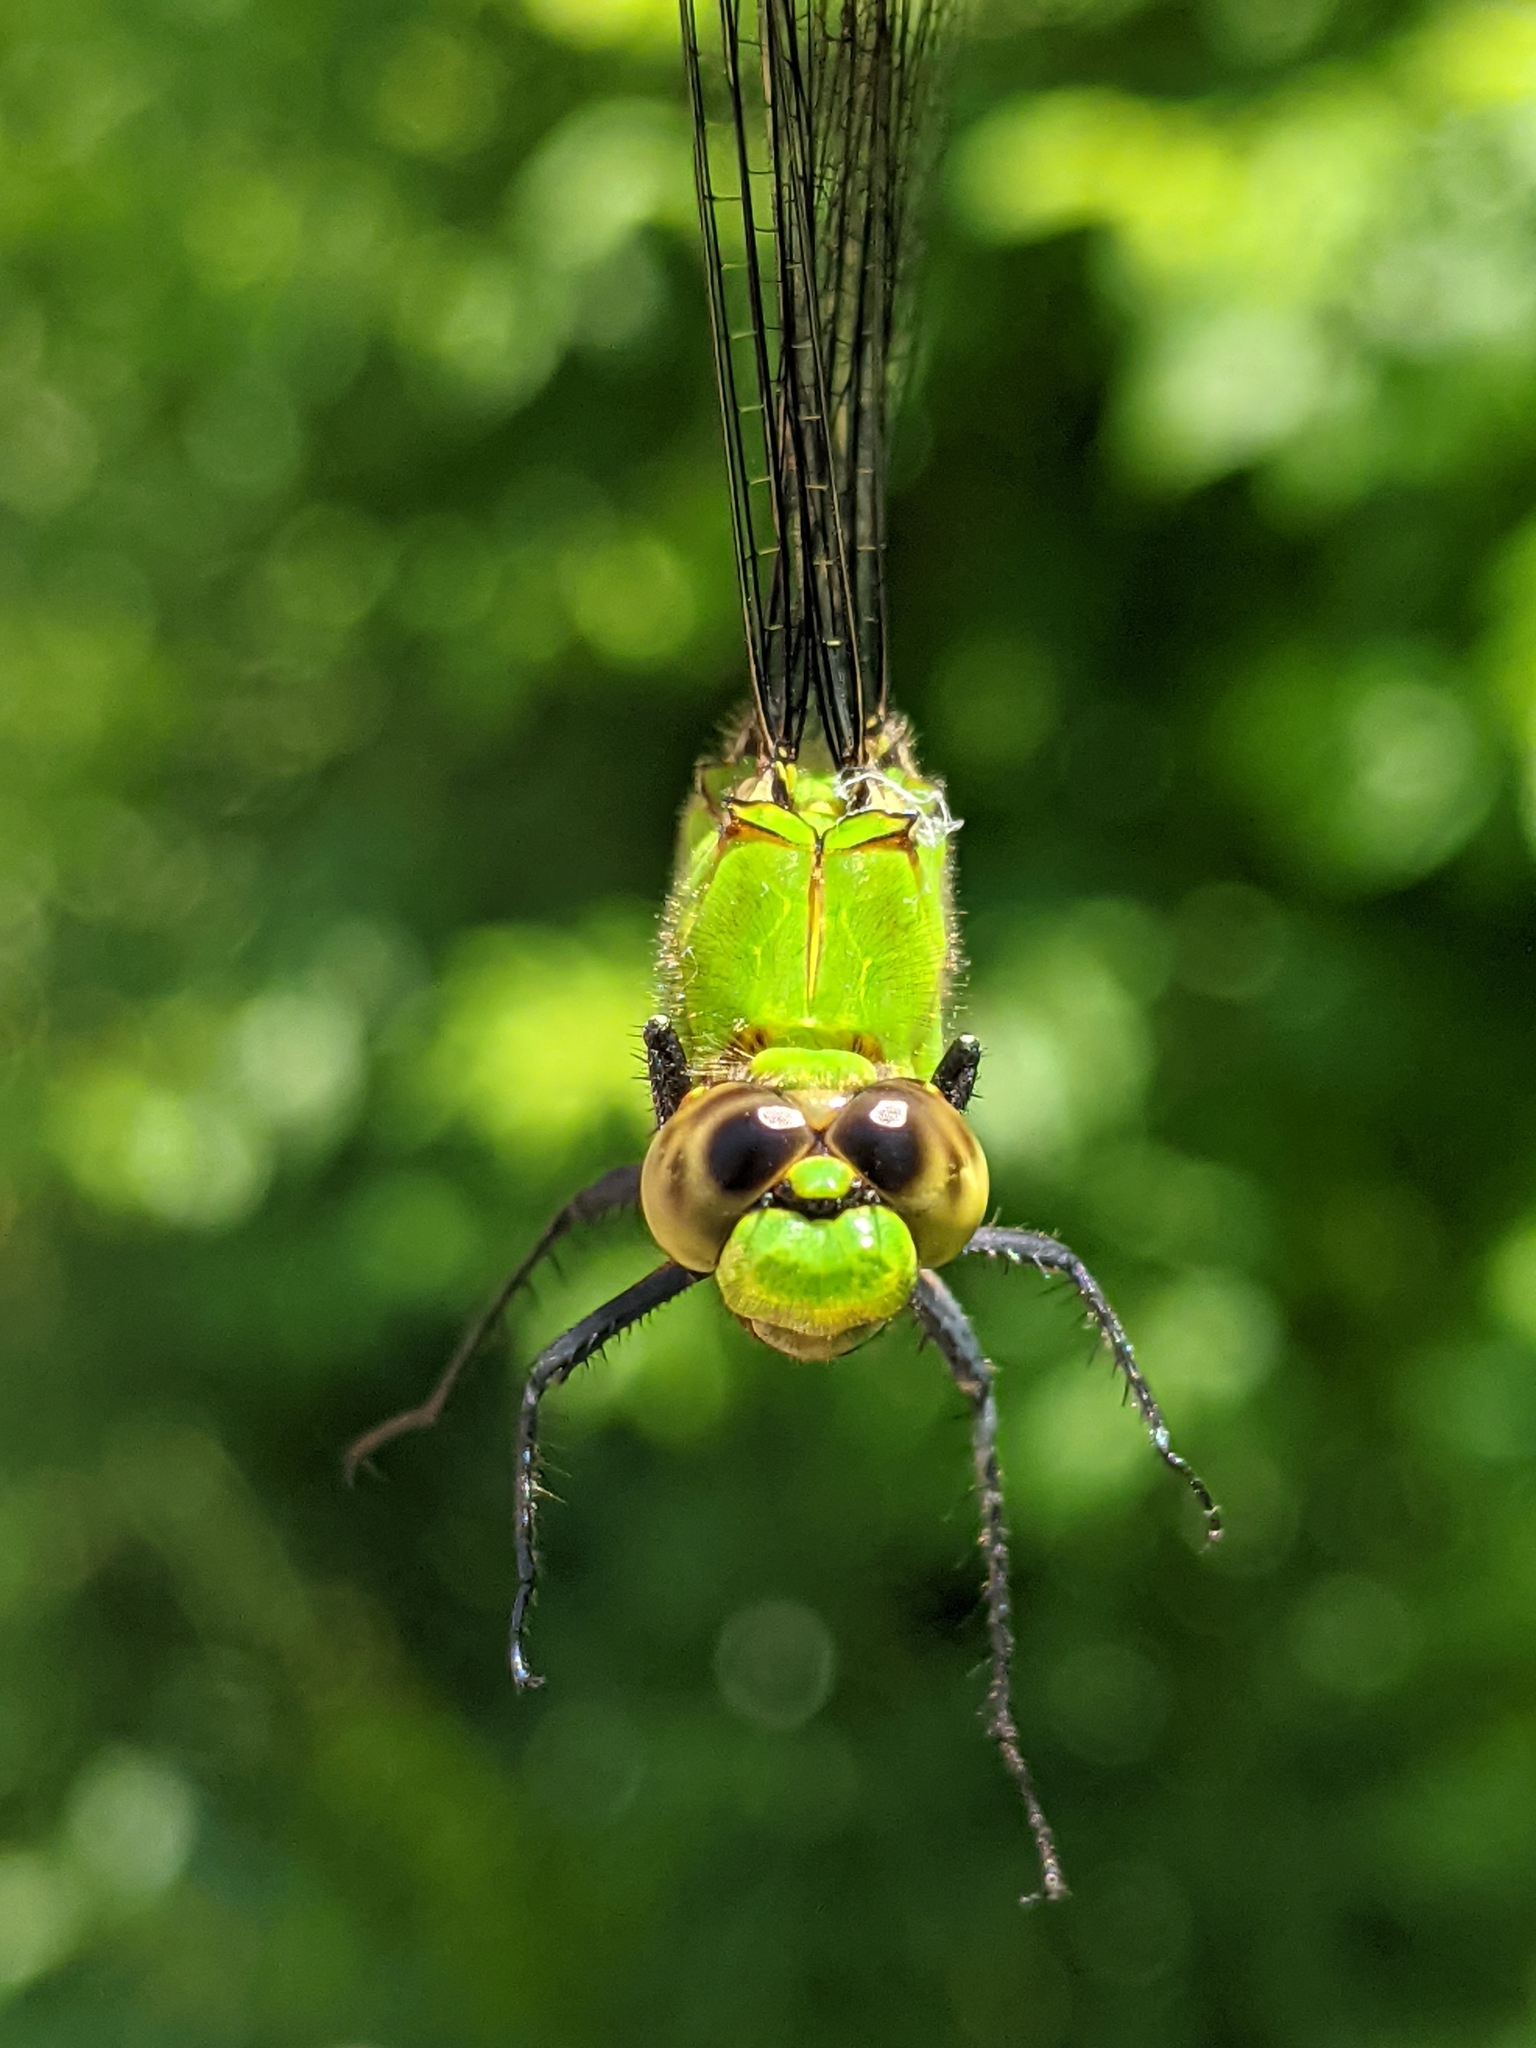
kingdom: Animalia
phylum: Arthropoda
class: Insecta
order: Odonata
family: Libellulidae
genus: Erythemis
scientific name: Erythemis simplicicollis
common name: Eastern pondhawk
